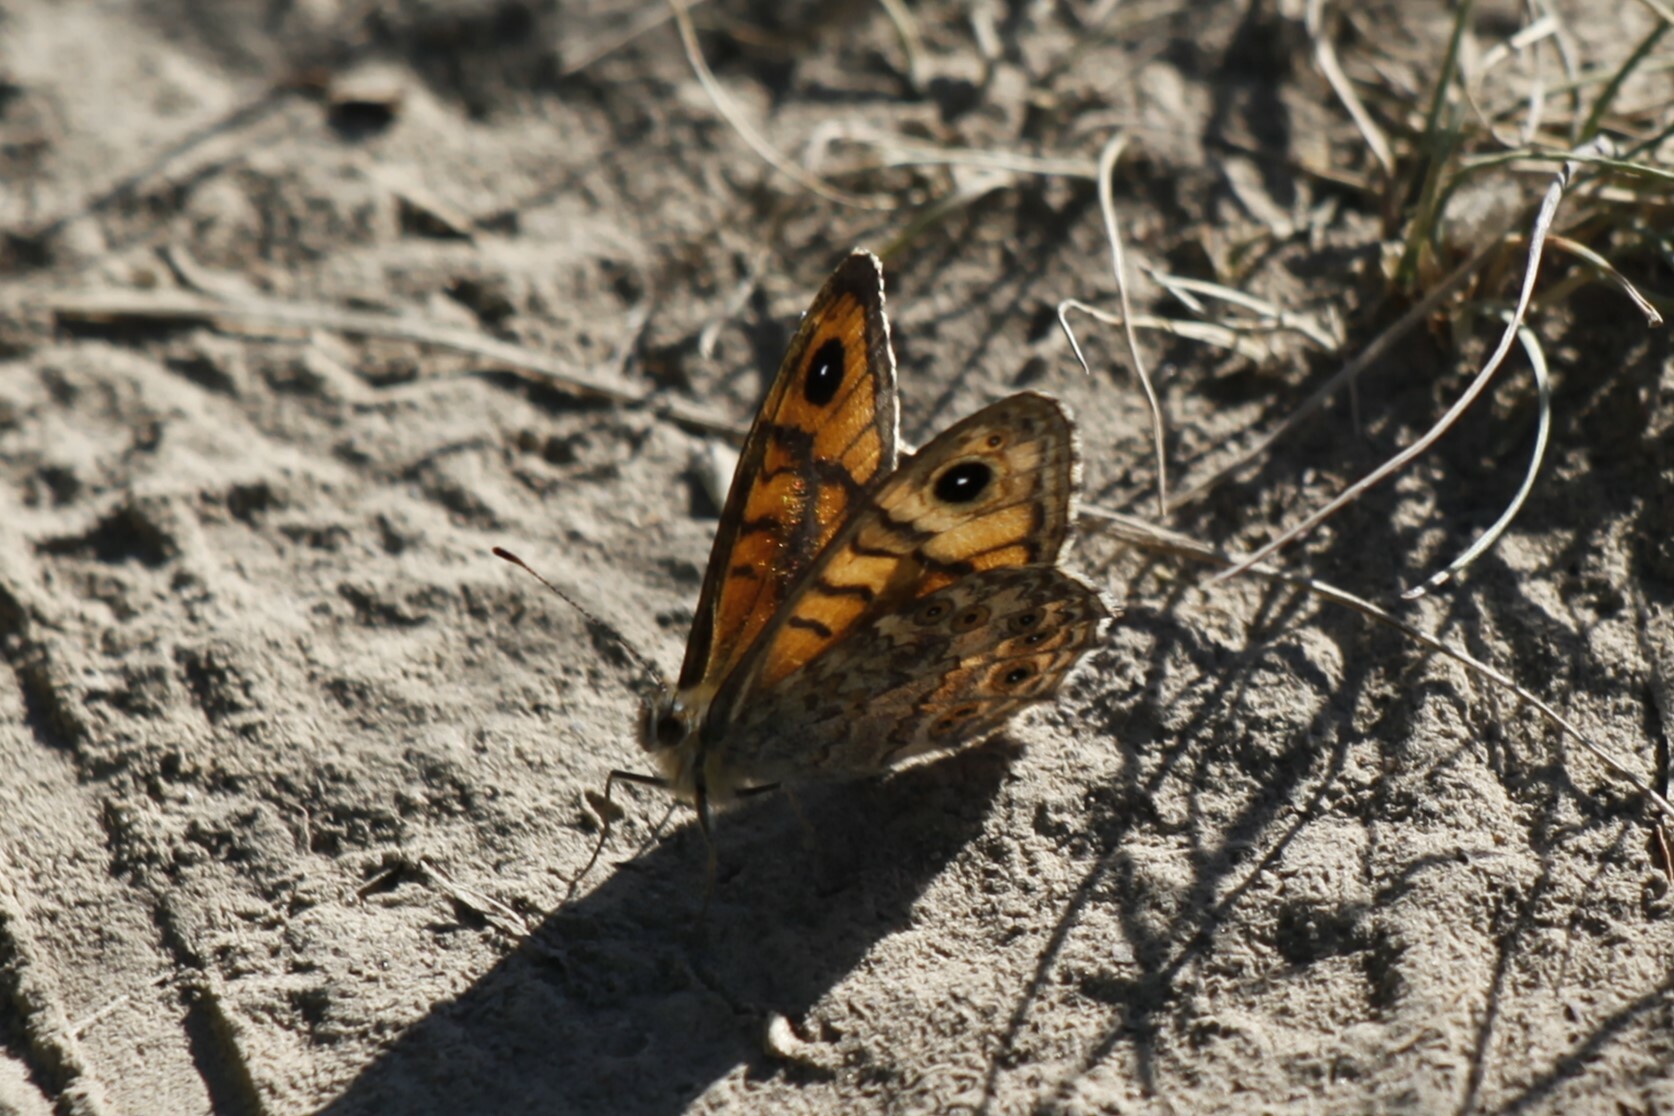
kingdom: Animalia
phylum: Arthropoda
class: Insecta
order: Lepidoptera
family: Nymphalidae
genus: Pararge
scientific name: Pararge Lasiommata megera
